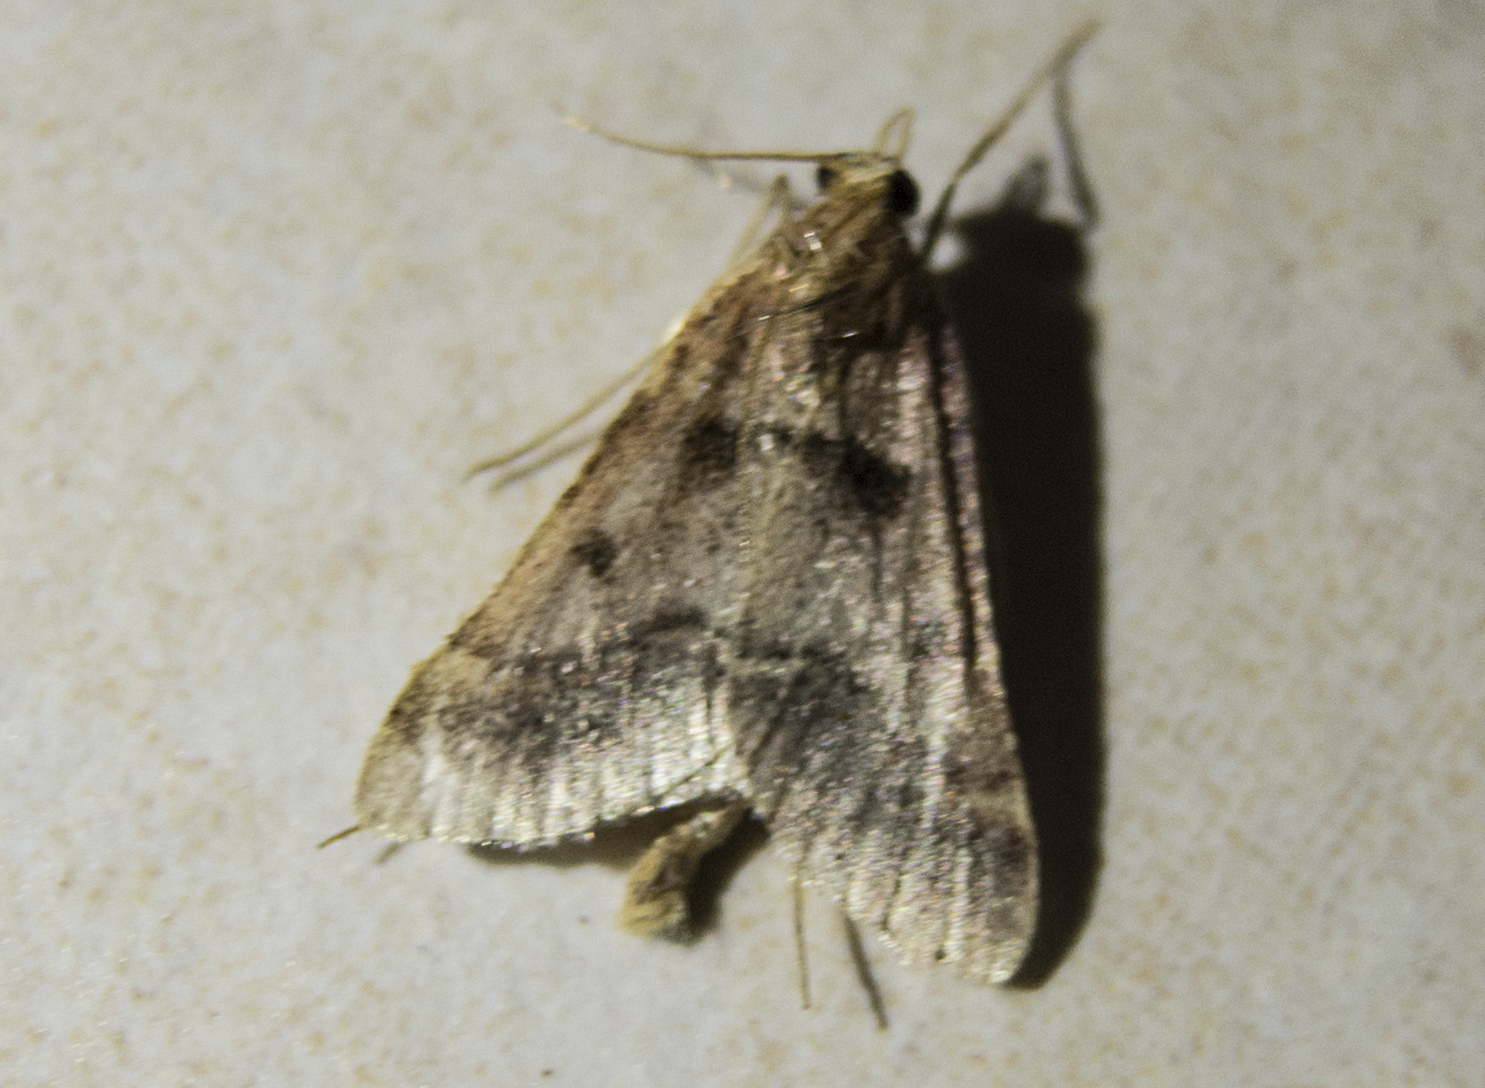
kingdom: Animalia
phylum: Arthropoda
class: Insecta
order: Lepidoptera
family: Pyralidae
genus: Stemmatophora
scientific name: Stemmatophora brunnealis
